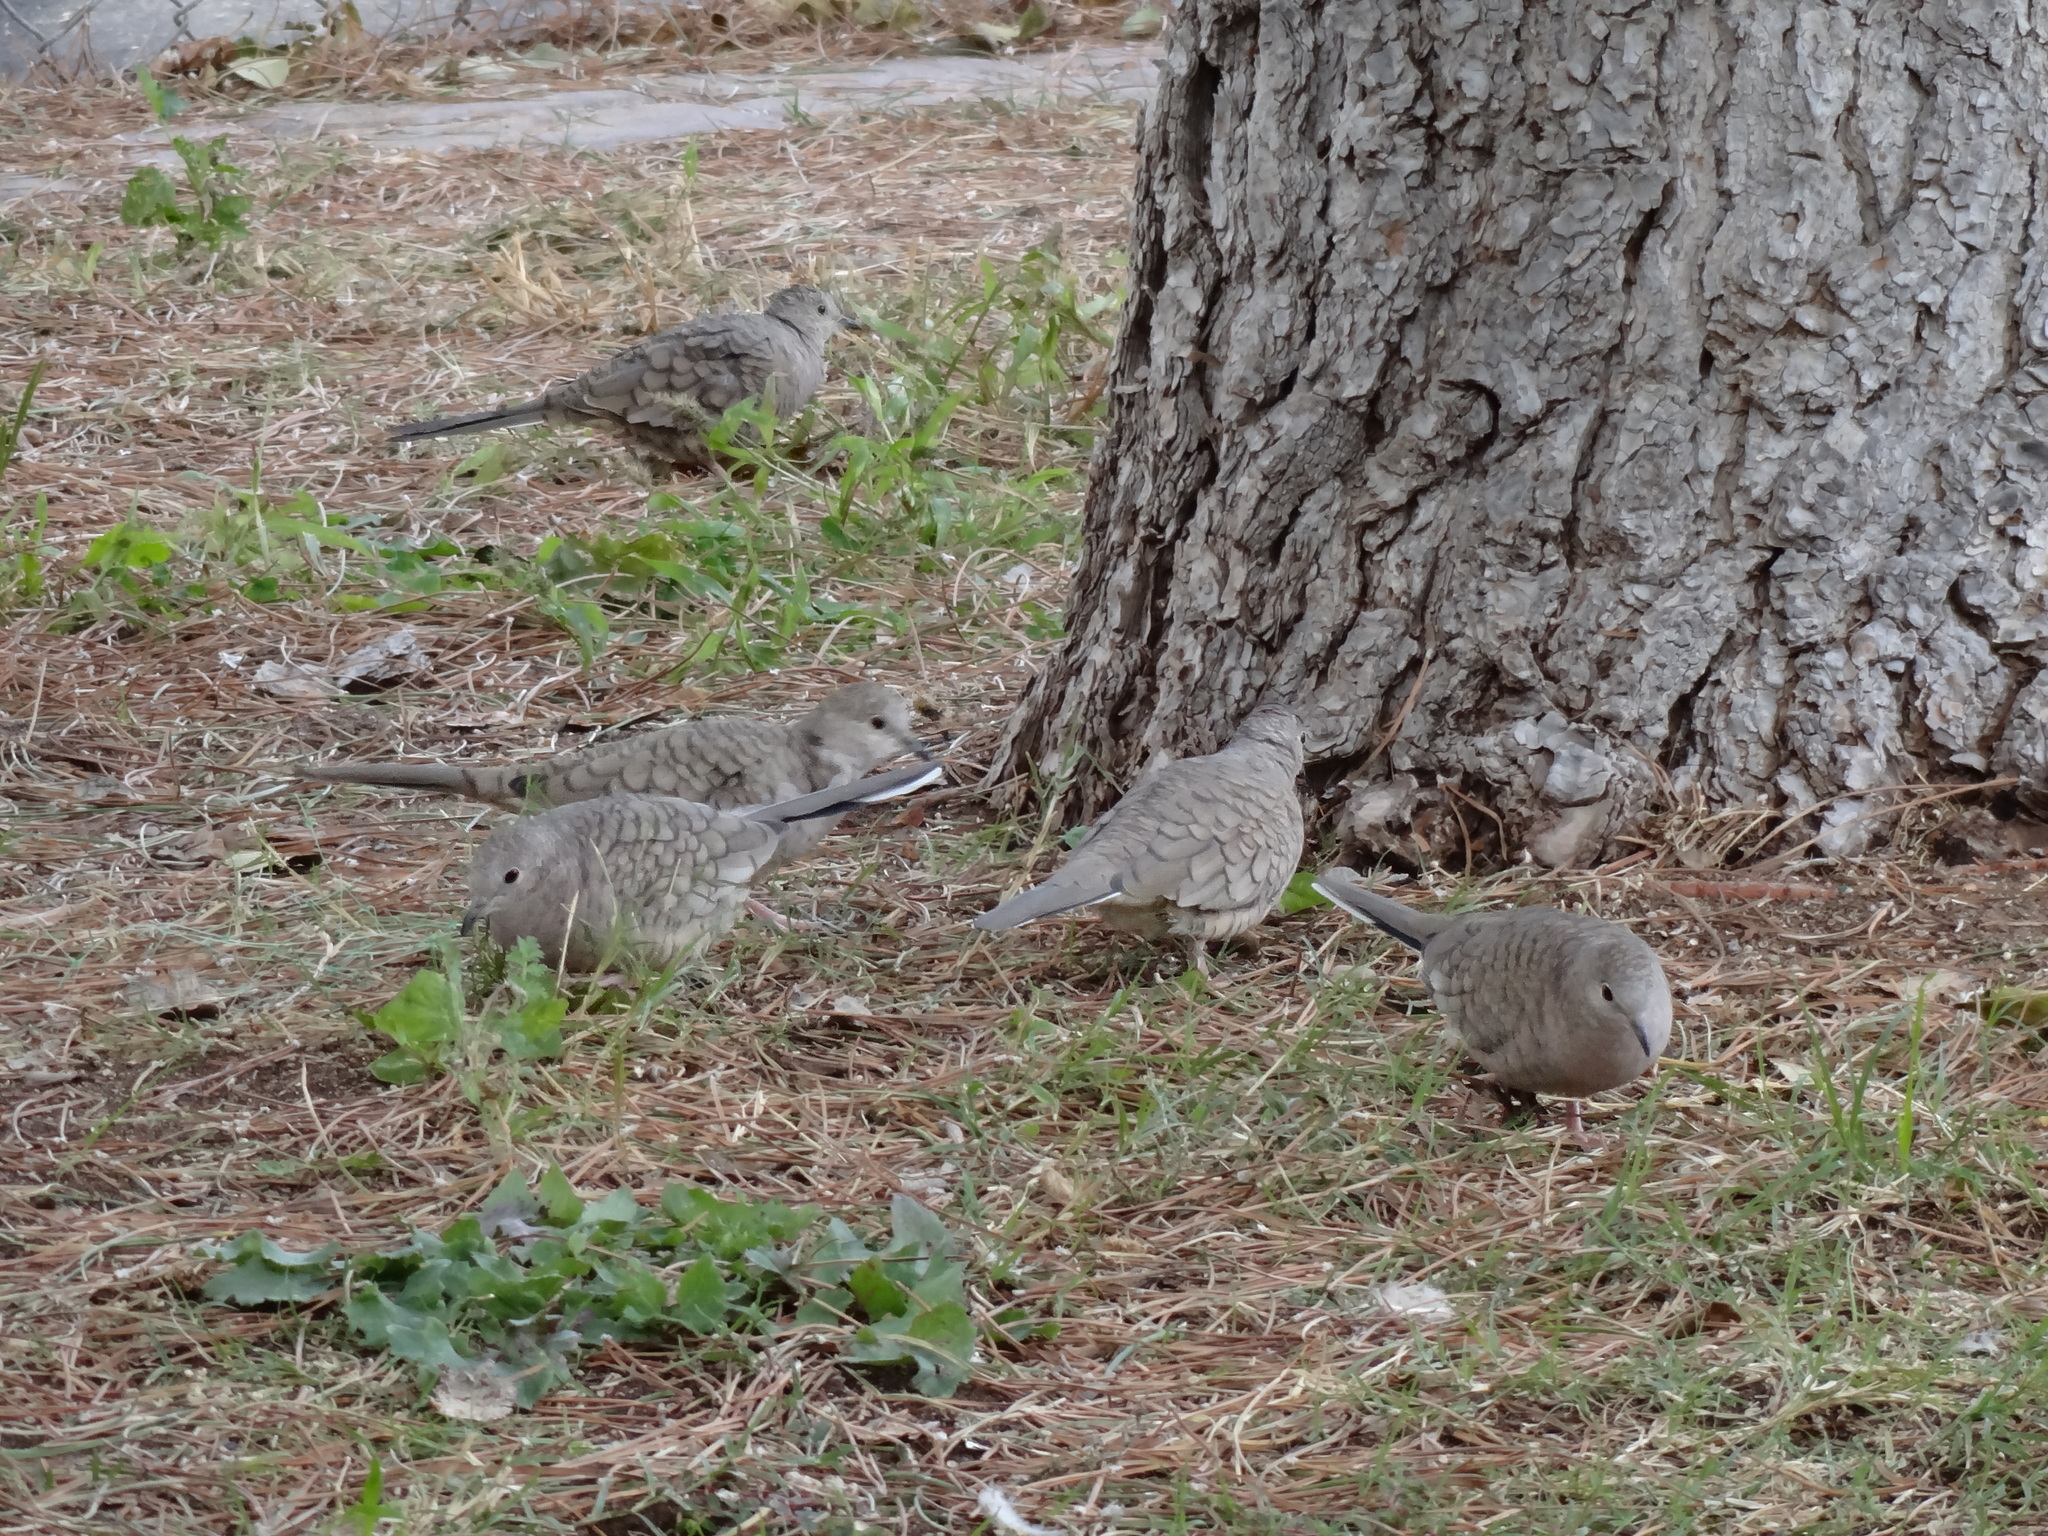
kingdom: Animalia
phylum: Chordata
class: Aves
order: Columbiformes
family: Columbidae
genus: Columbina
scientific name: Columbina inca
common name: Inca dove
